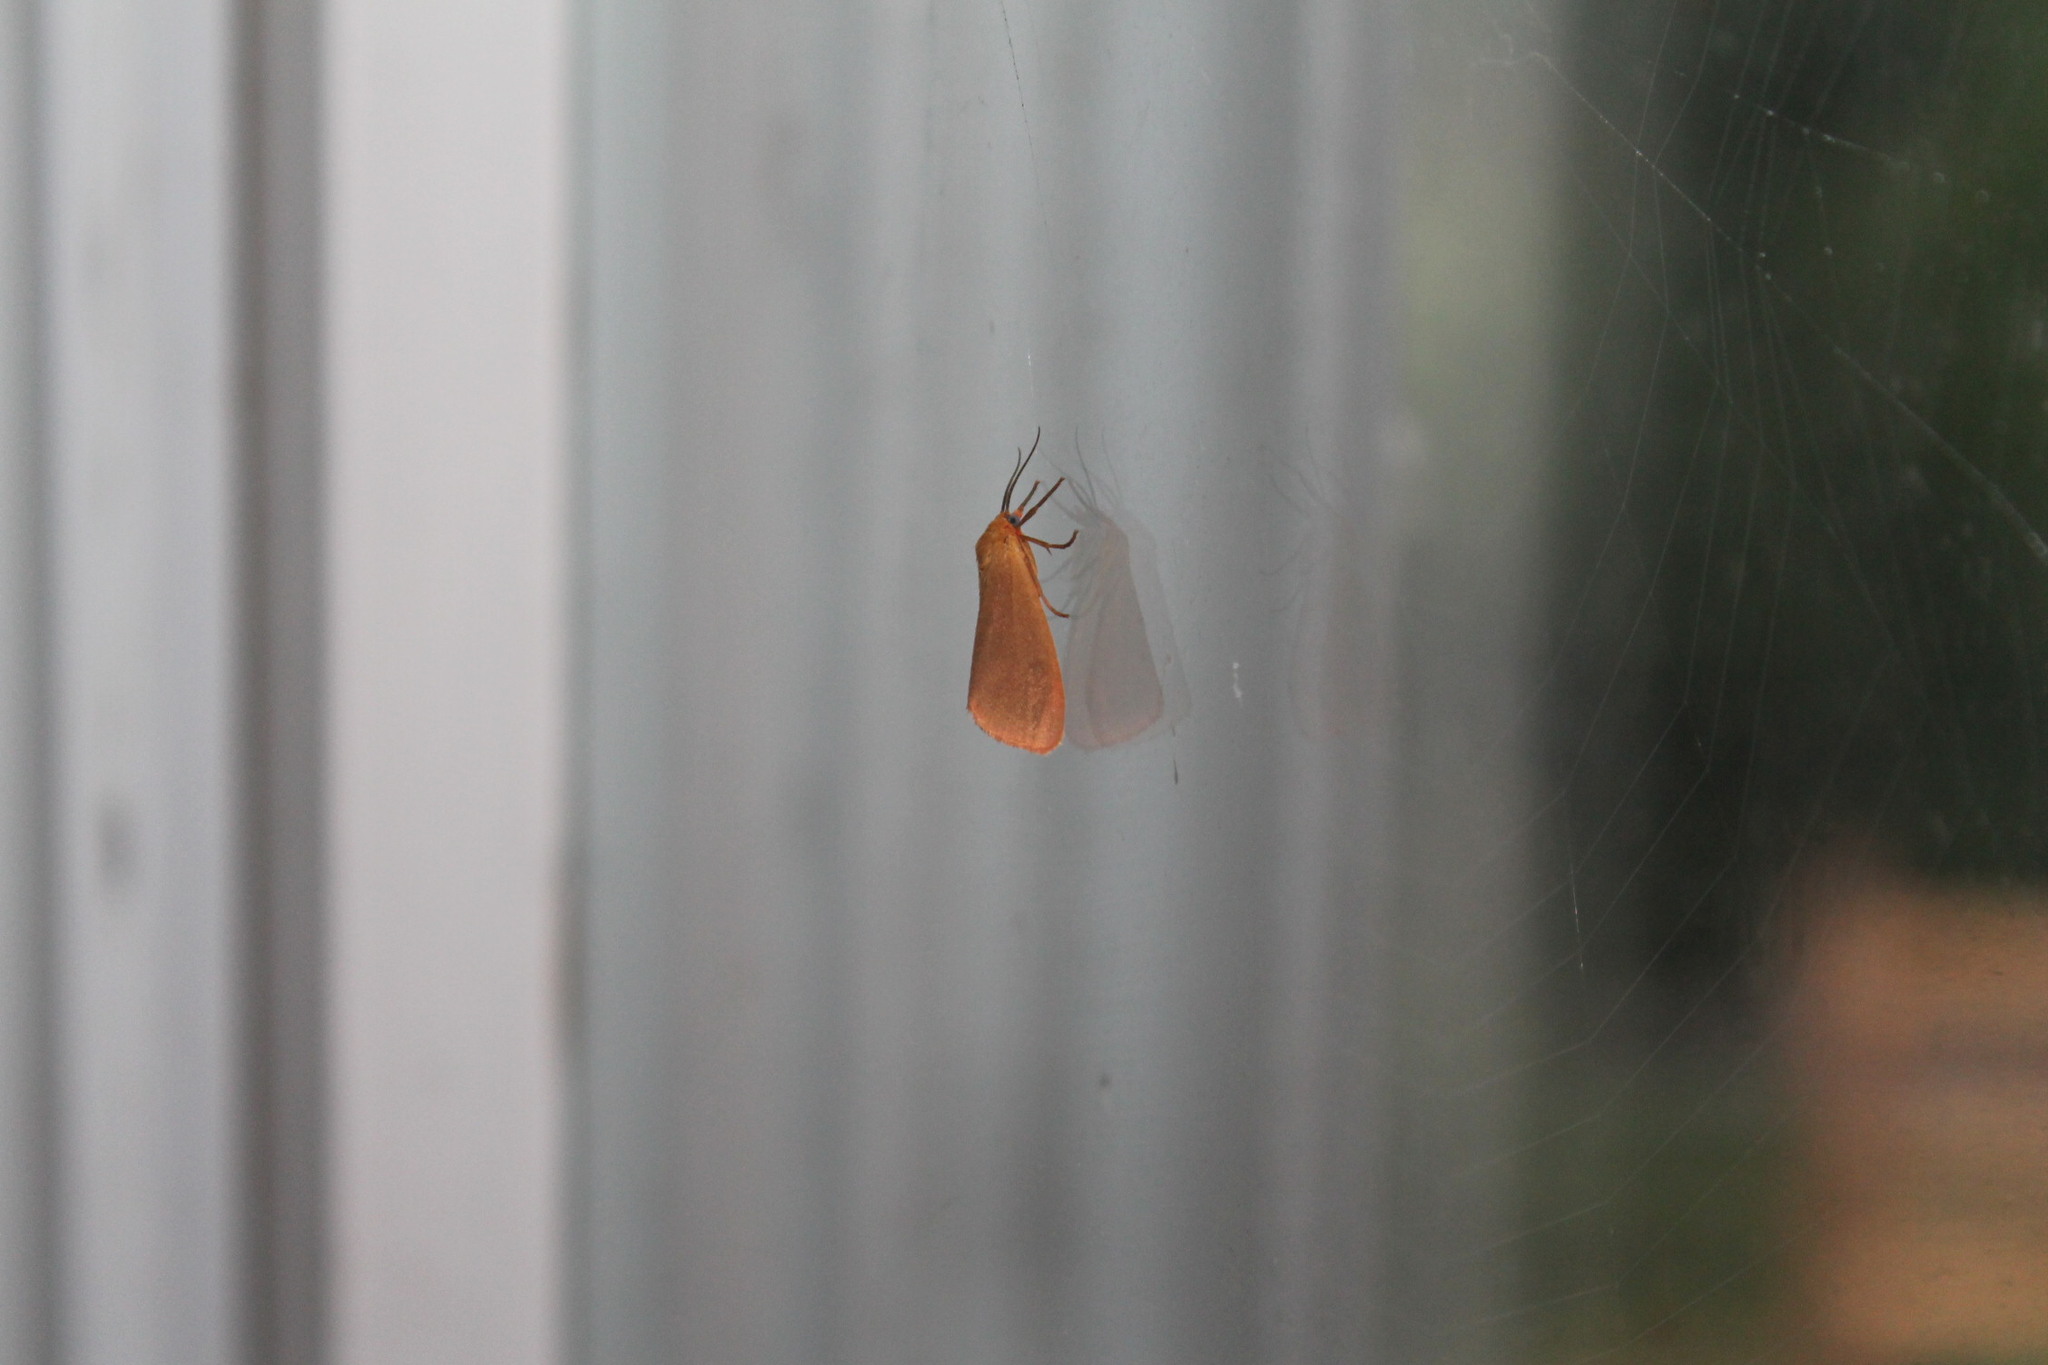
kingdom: Animalia
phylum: Arthropoda
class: Insecta
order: Lepidoptera
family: Erebidae
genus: Virbia
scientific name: Virbia aurantiaca
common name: Orange virbia moth
